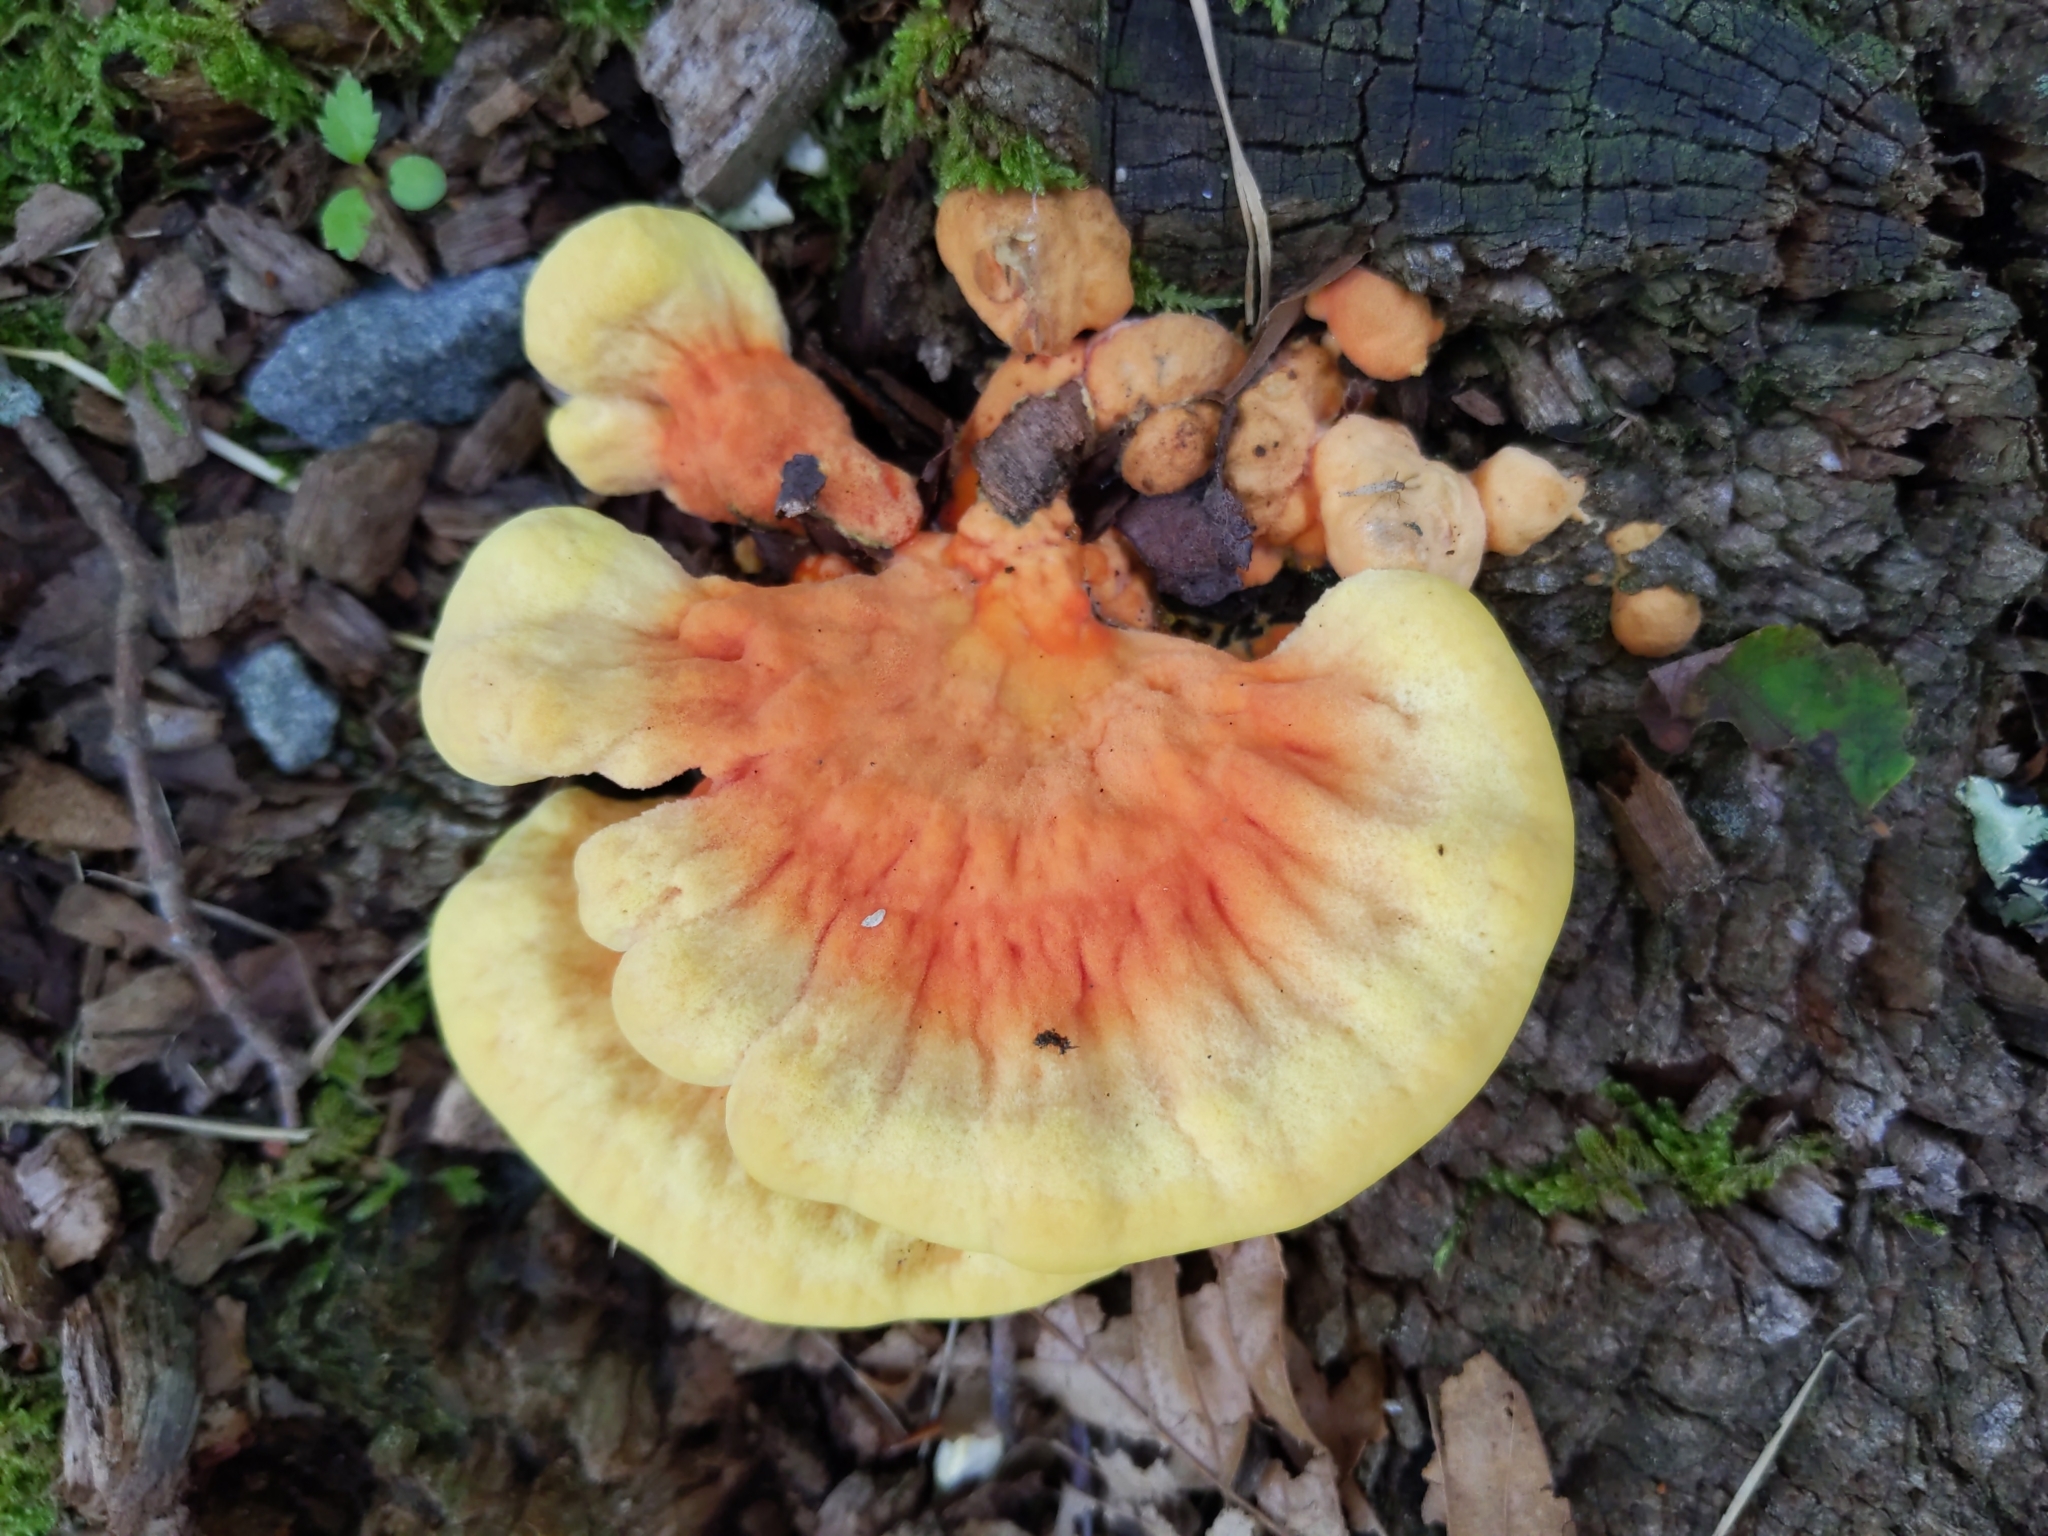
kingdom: Fungi
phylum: Basidiomycota
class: Agaricomycetes
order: Polyporales
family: Laetiporaceae
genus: Laetiporus
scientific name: Laetiporus sulphureus
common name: Chicken of the woods
